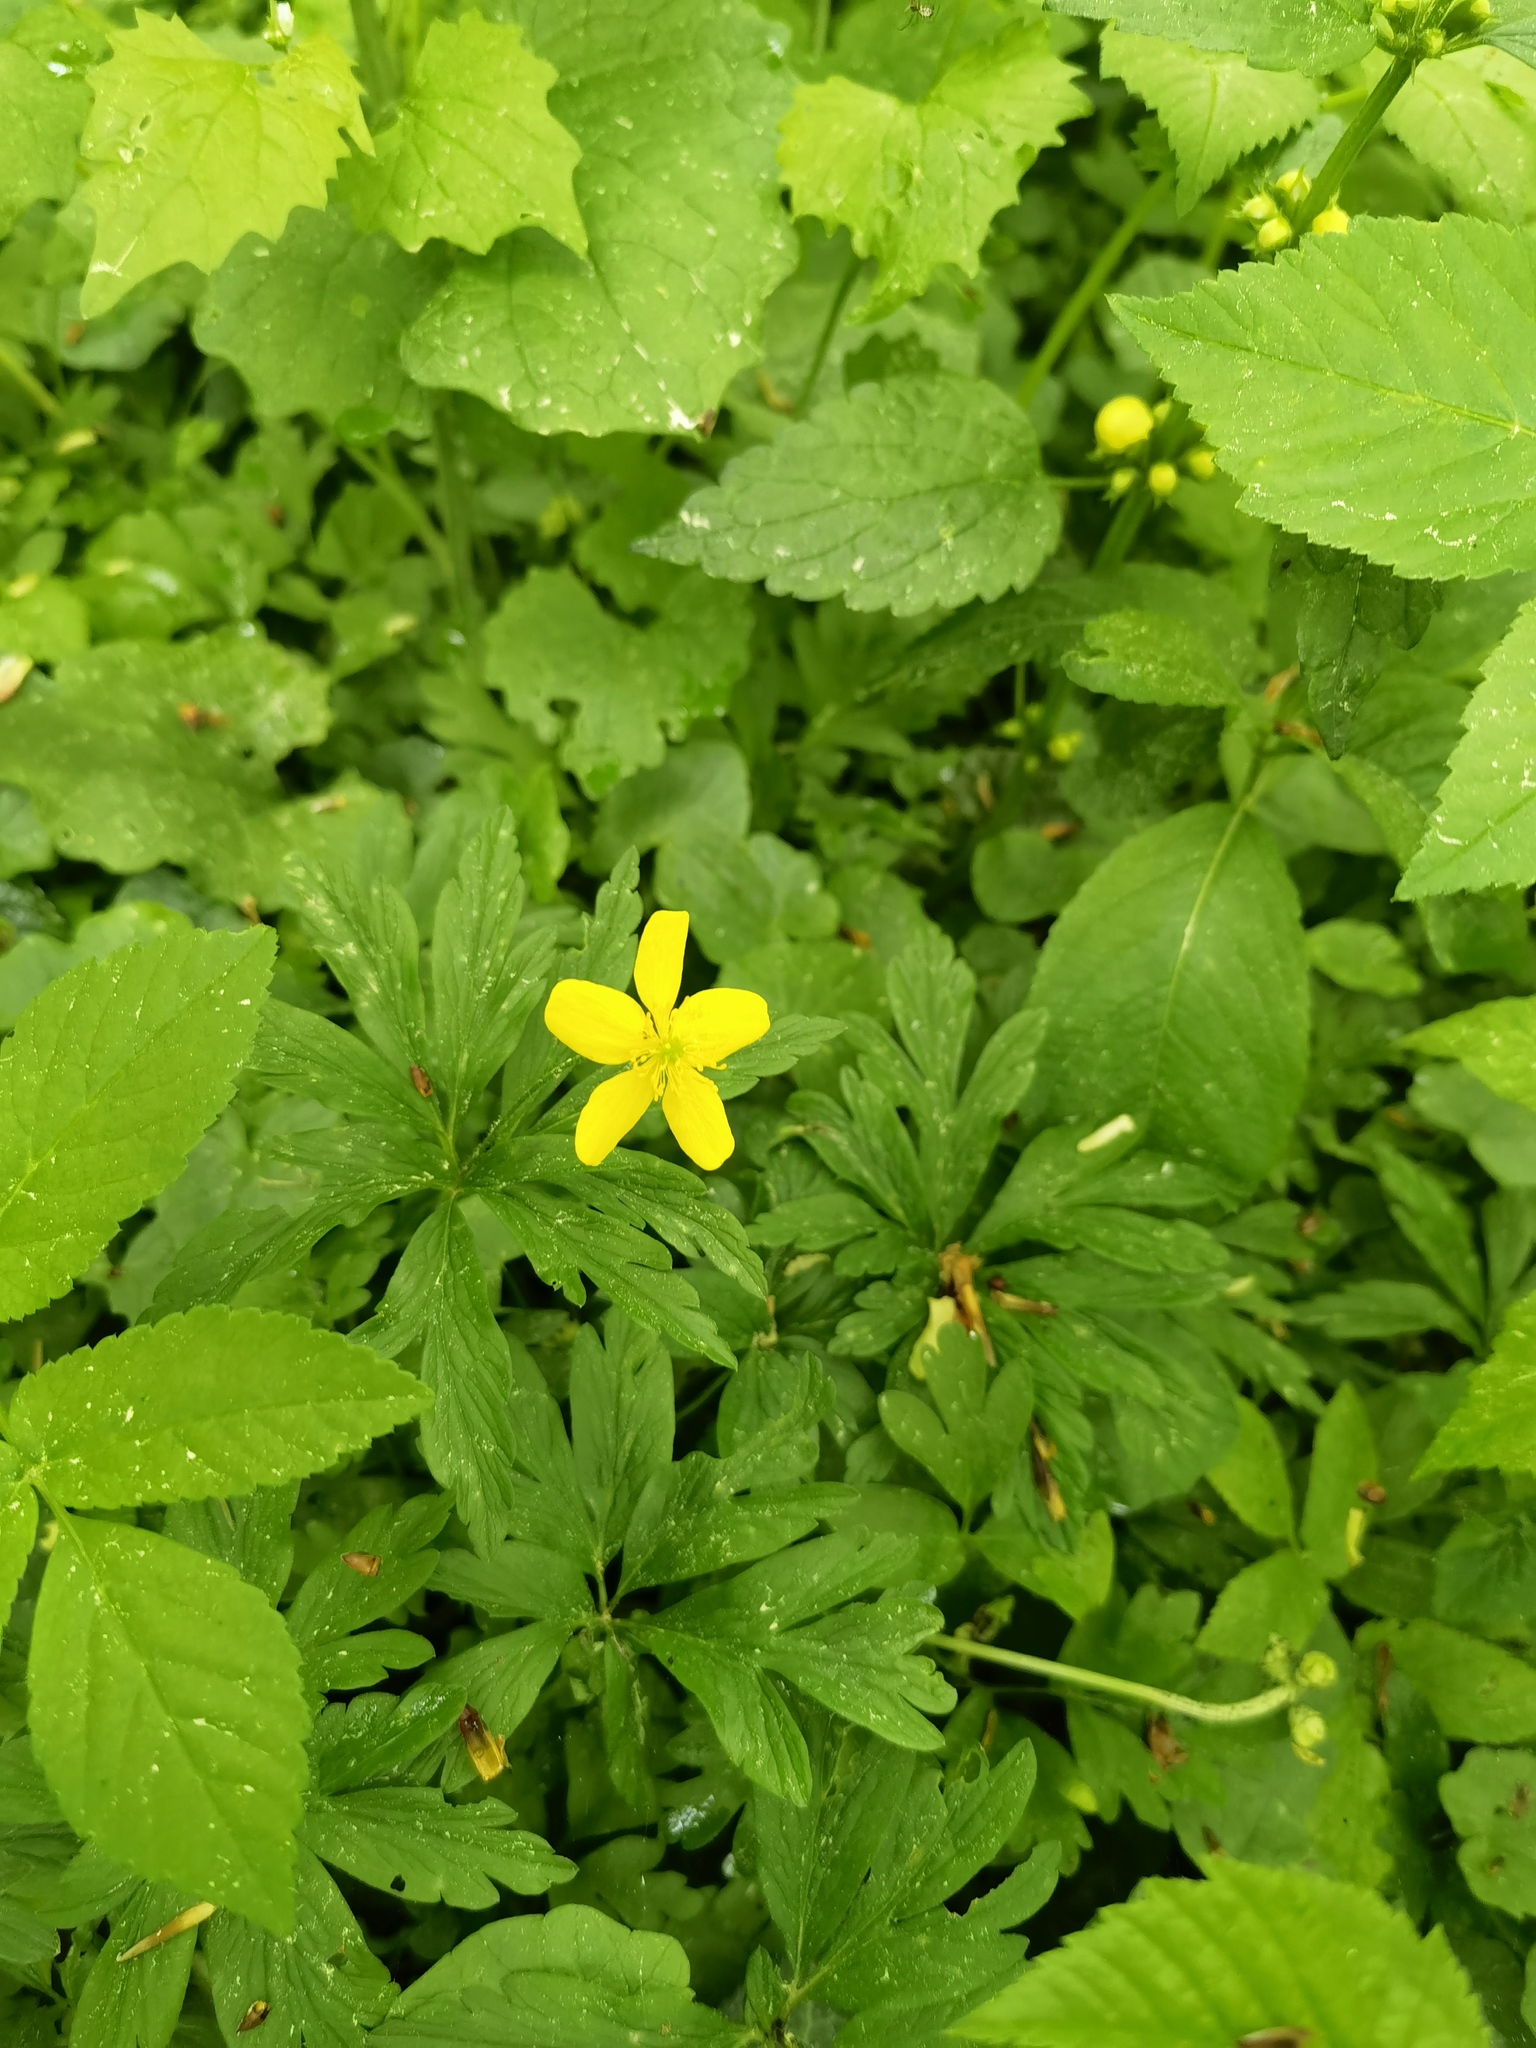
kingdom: Plantae
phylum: Tracheophyta
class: Magnoliopsida
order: Ranunculales
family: Ranunculaceae
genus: Anemone
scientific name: Anemone ranunculoides
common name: Yellow anemone
